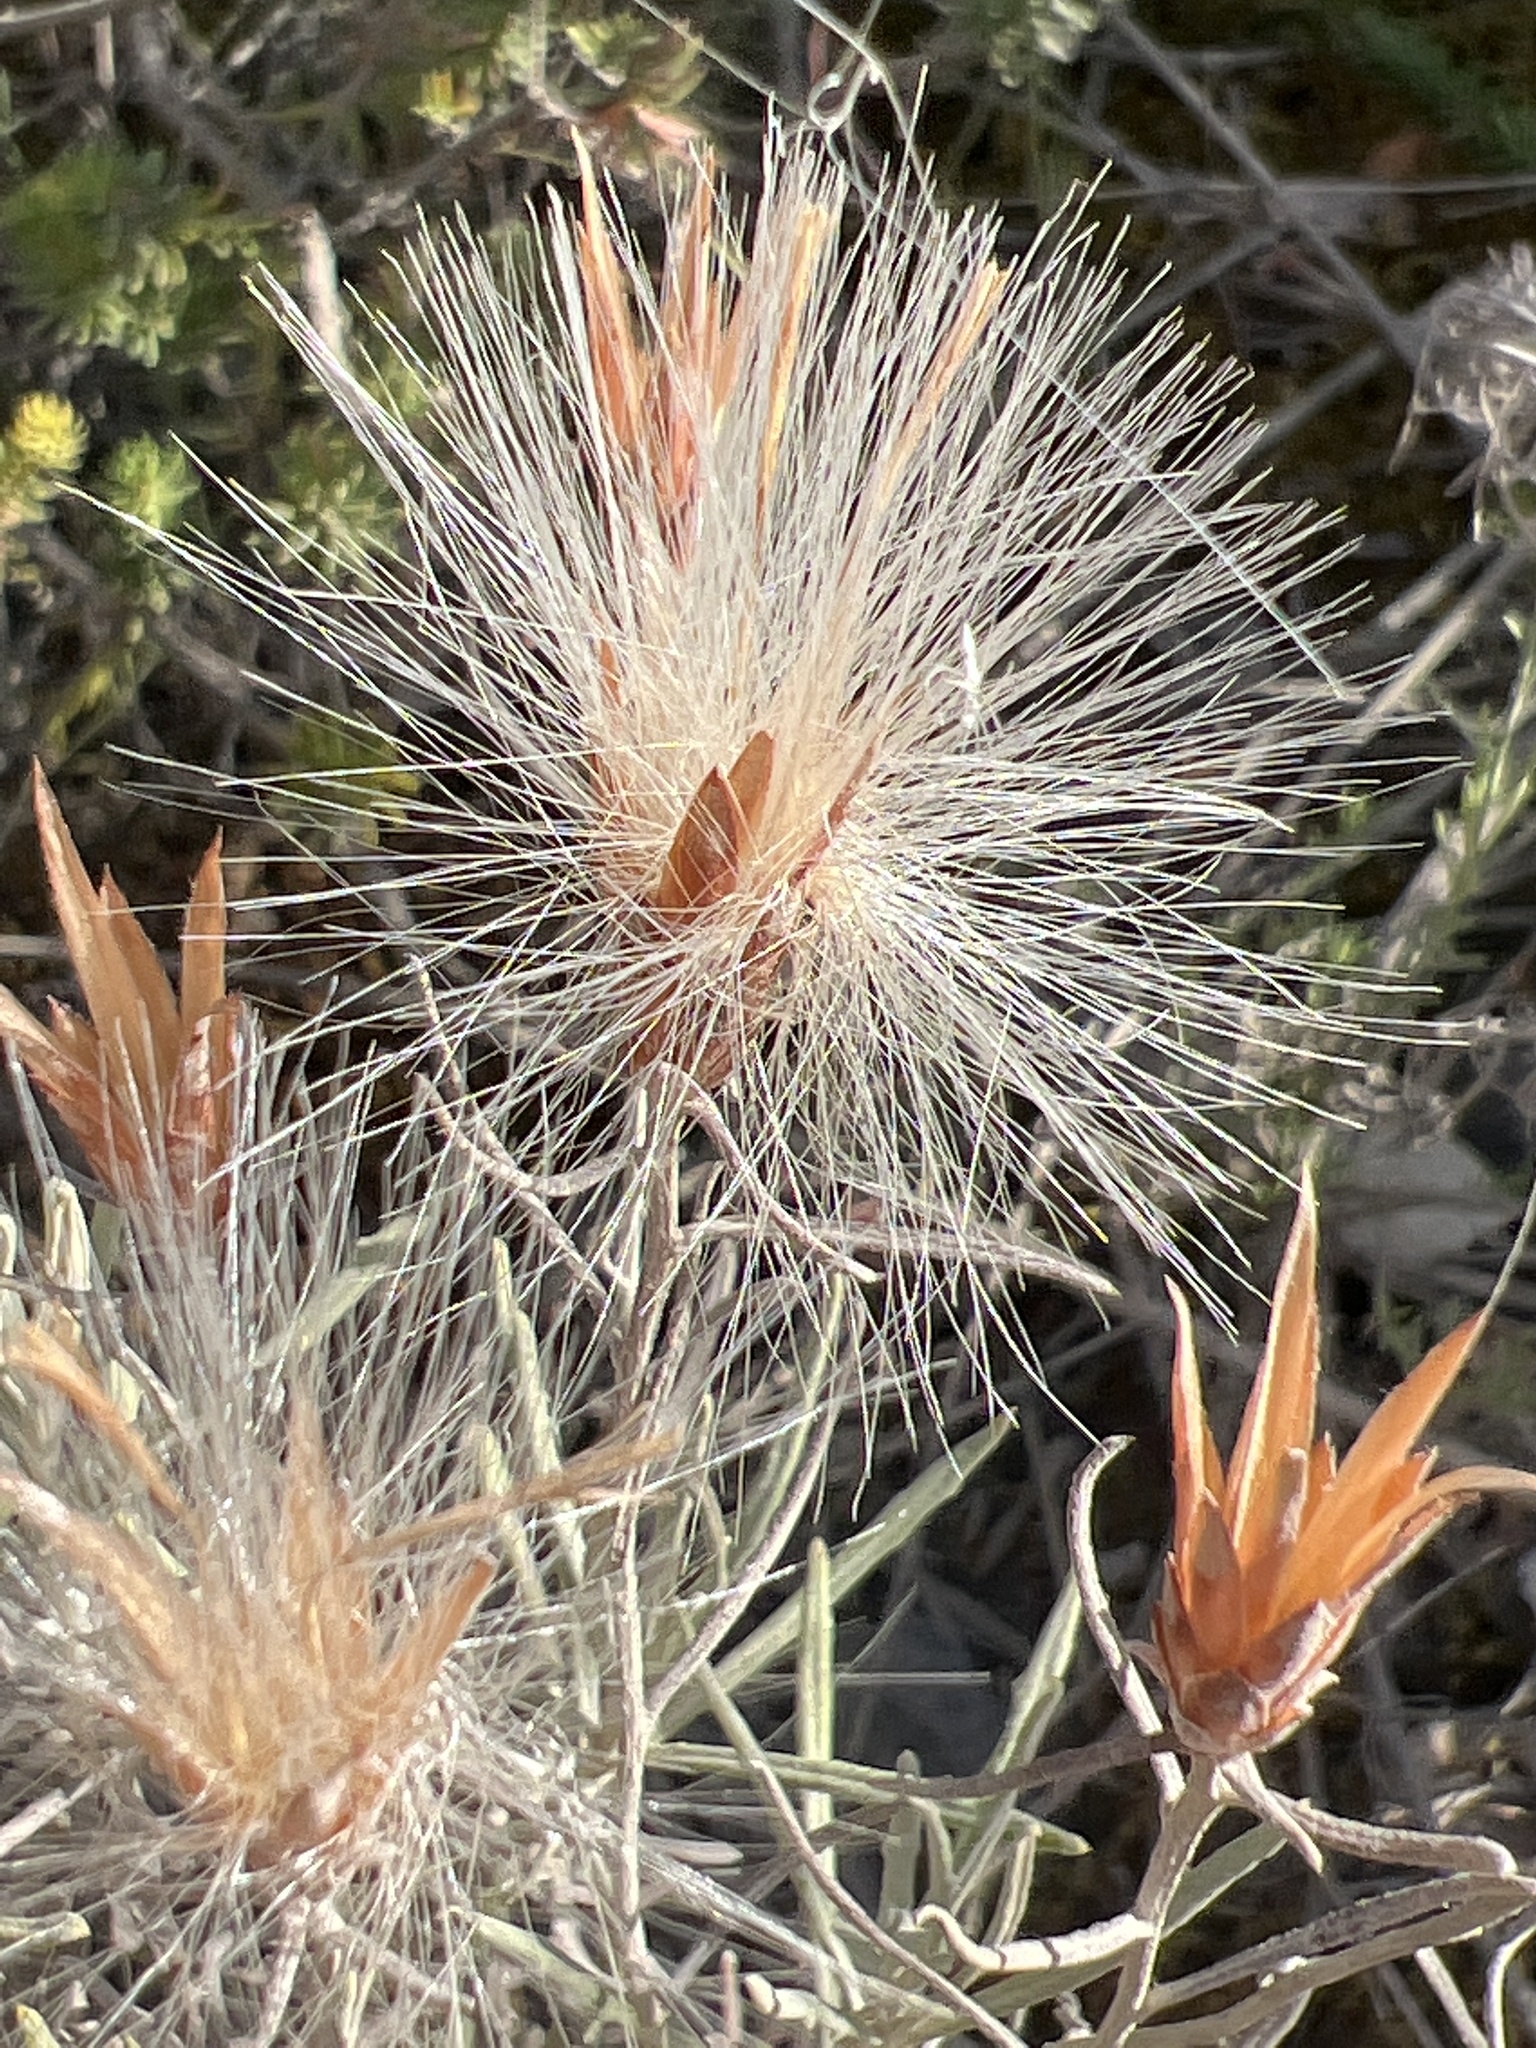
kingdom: Plantae
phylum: Tracheophyta
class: Magnoliopsida
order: Asterales
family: Asteraceae
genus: Staehelina
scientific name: Staehelina dubia
